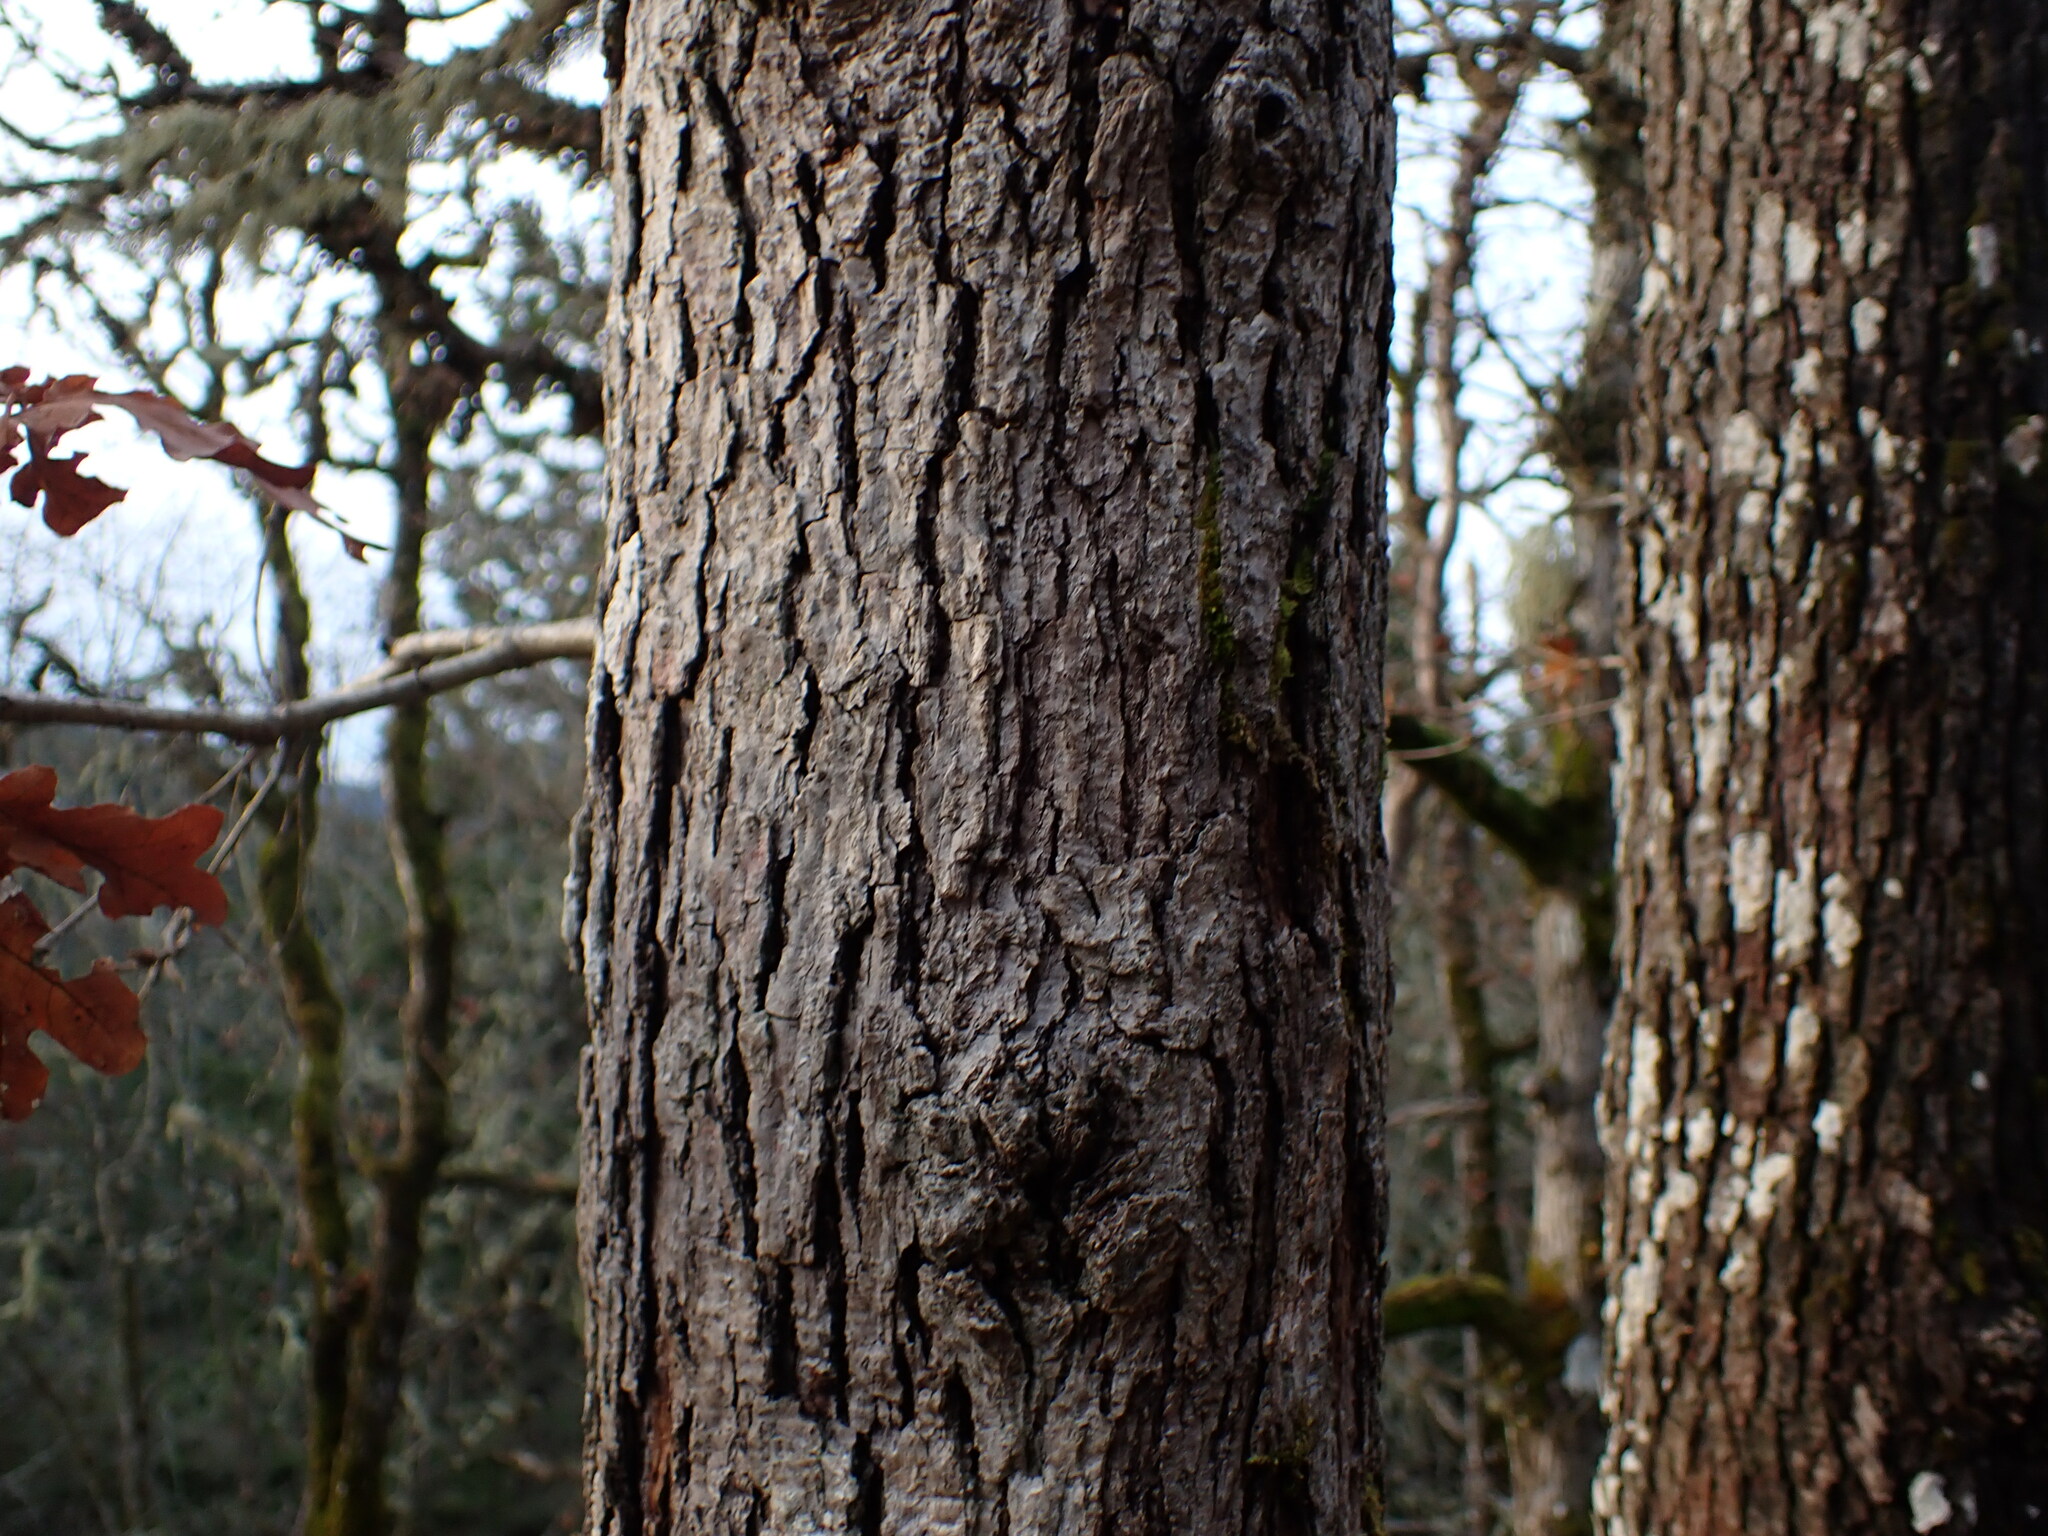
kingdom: Plantae
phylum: Tracheophyta
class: Magnoliopsida
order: Fagales
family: Fagaceae
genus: Quercus
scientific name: Quercus garryana
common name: Garry oak
